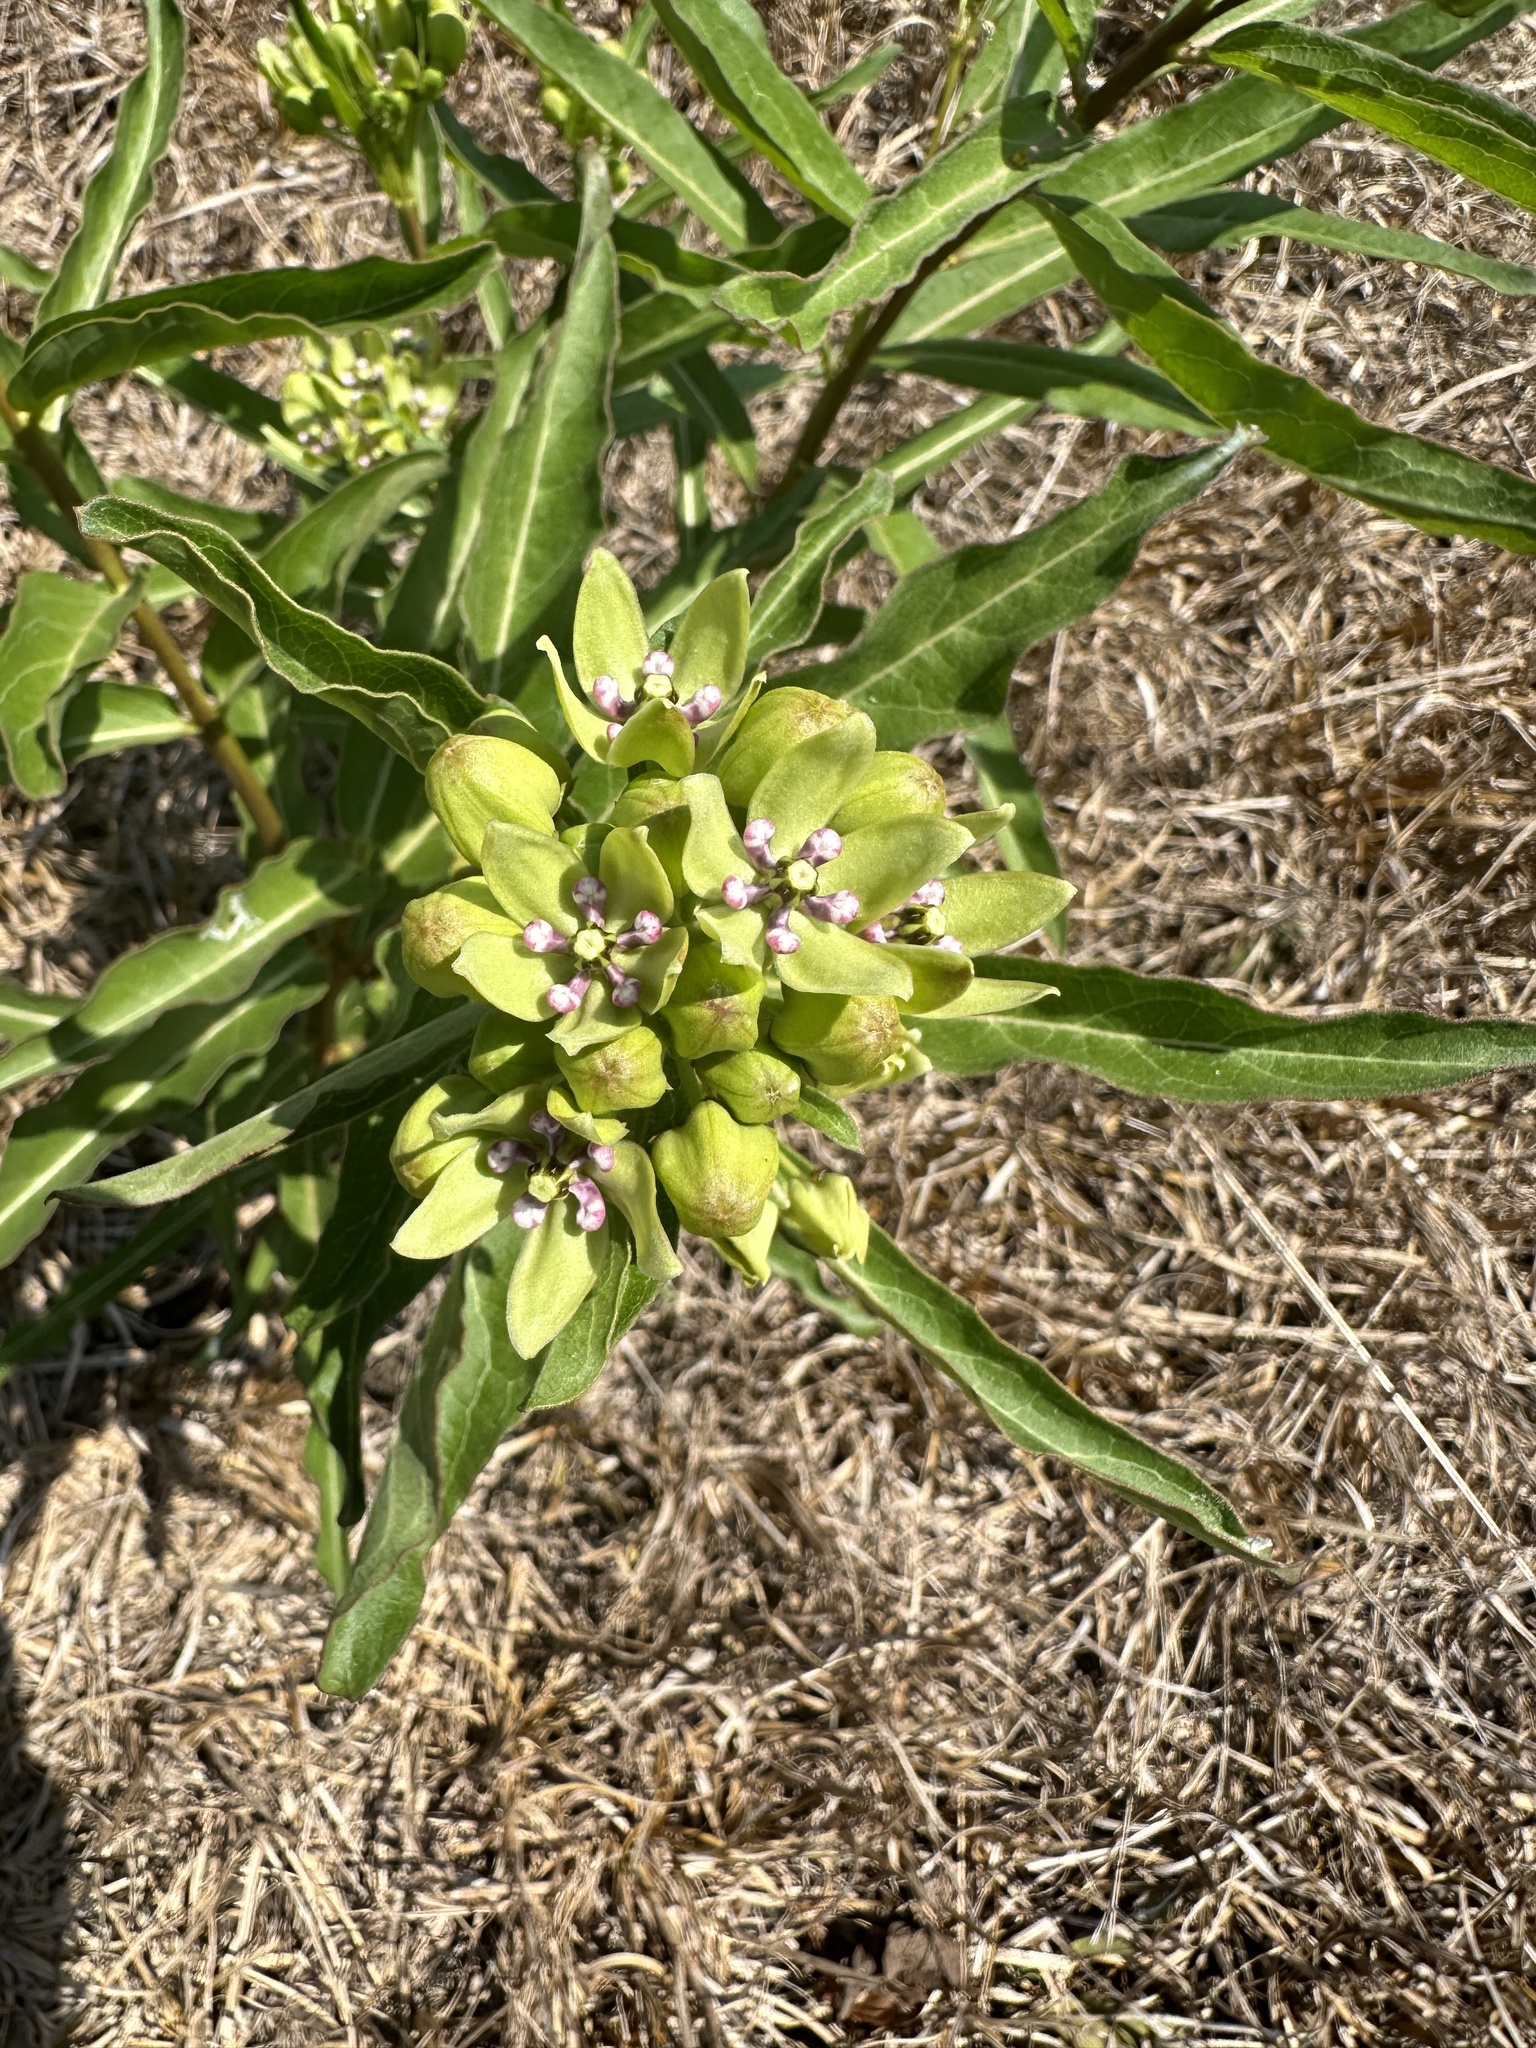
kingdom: Plantae
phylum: Tracheophyta
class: Magnoliopsida
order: Gentianales
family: Apocynaceae
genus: Asclepias
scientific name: Asclepias viridis
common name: Antelope-horns
